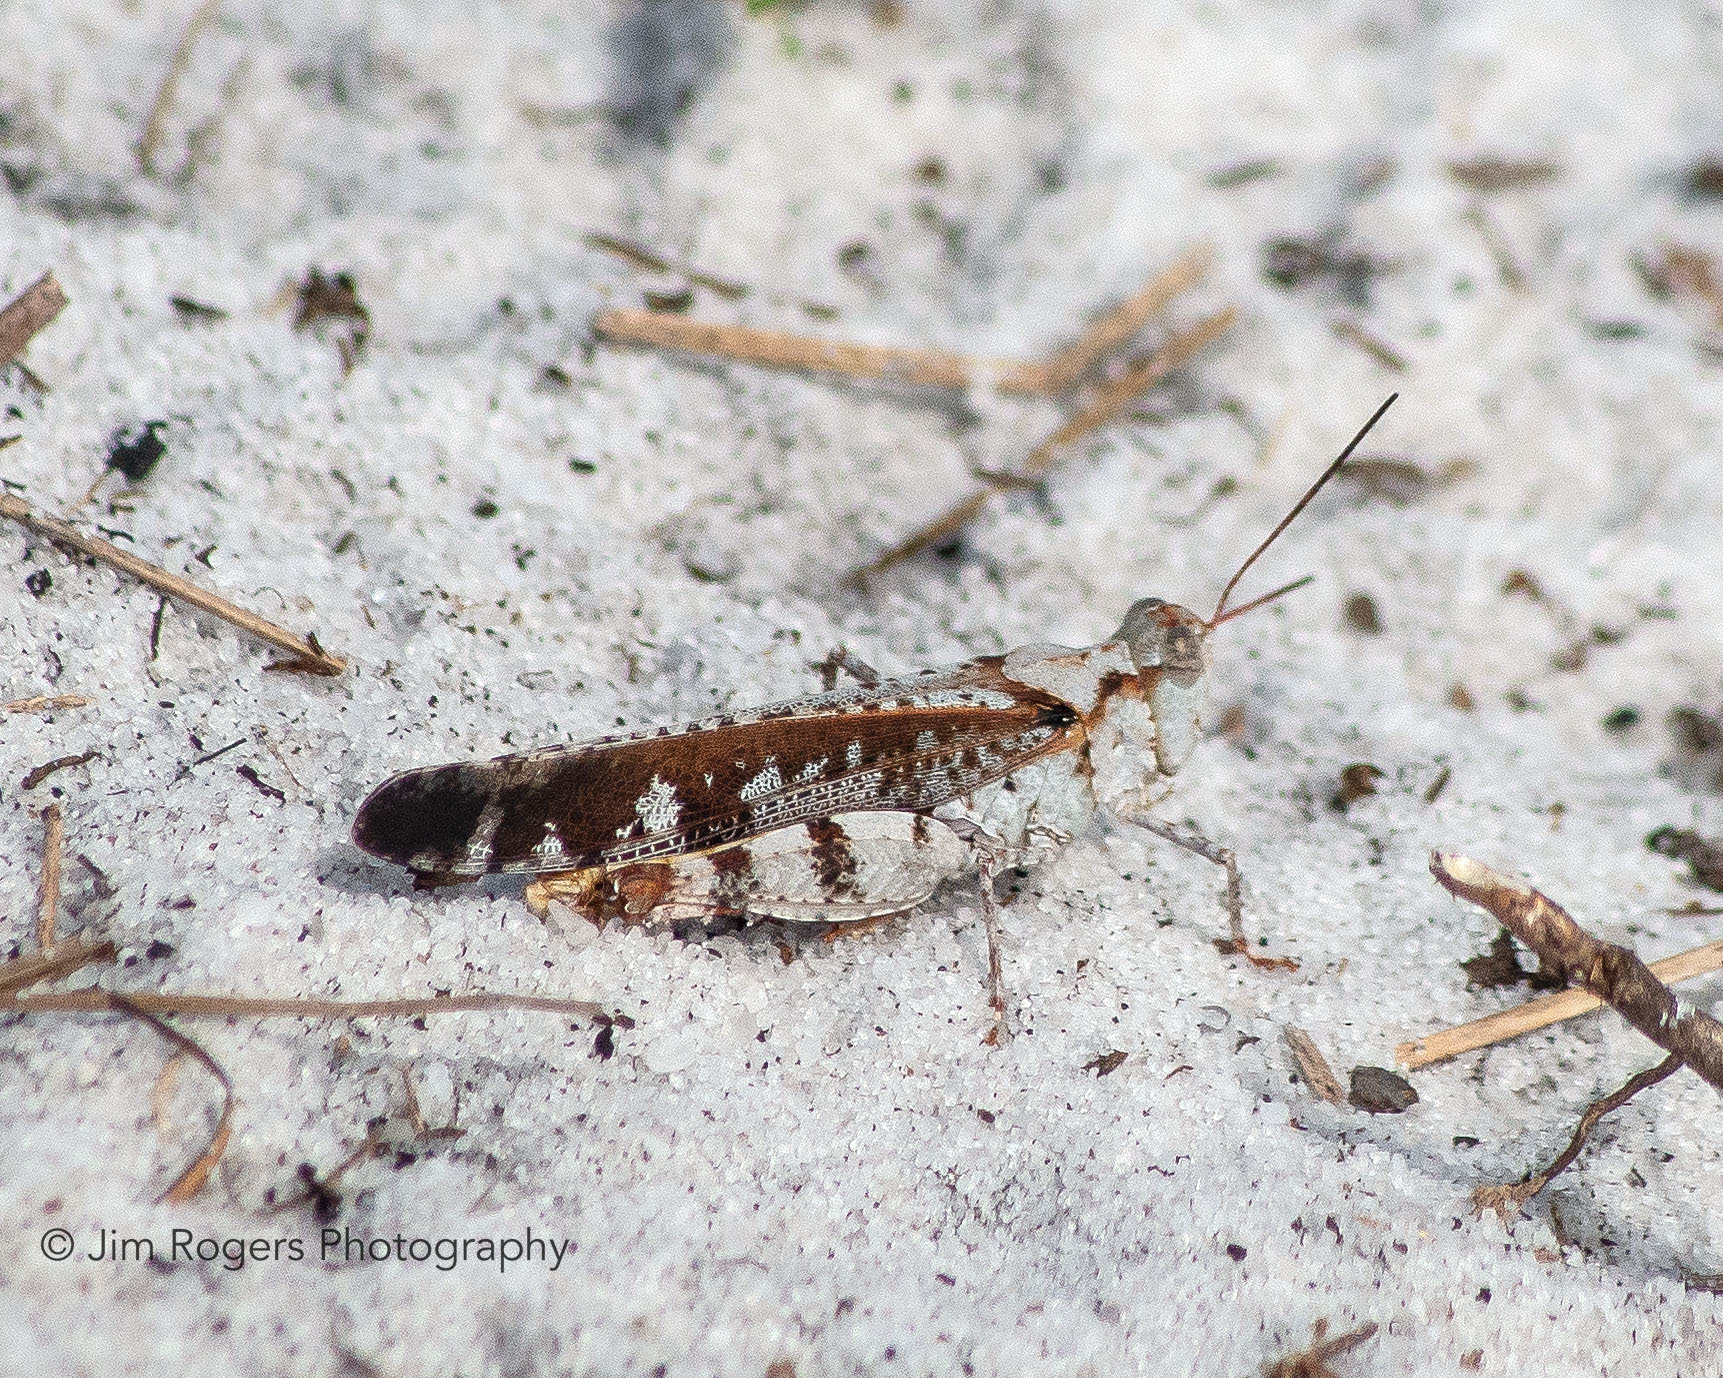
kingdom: Animalia
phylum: Arthropoda
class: Insecta
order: Orthoptera
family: Acrididae
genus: Spharagemon
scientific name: Spharagemon marmoratum
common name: Marbled grasshopper
